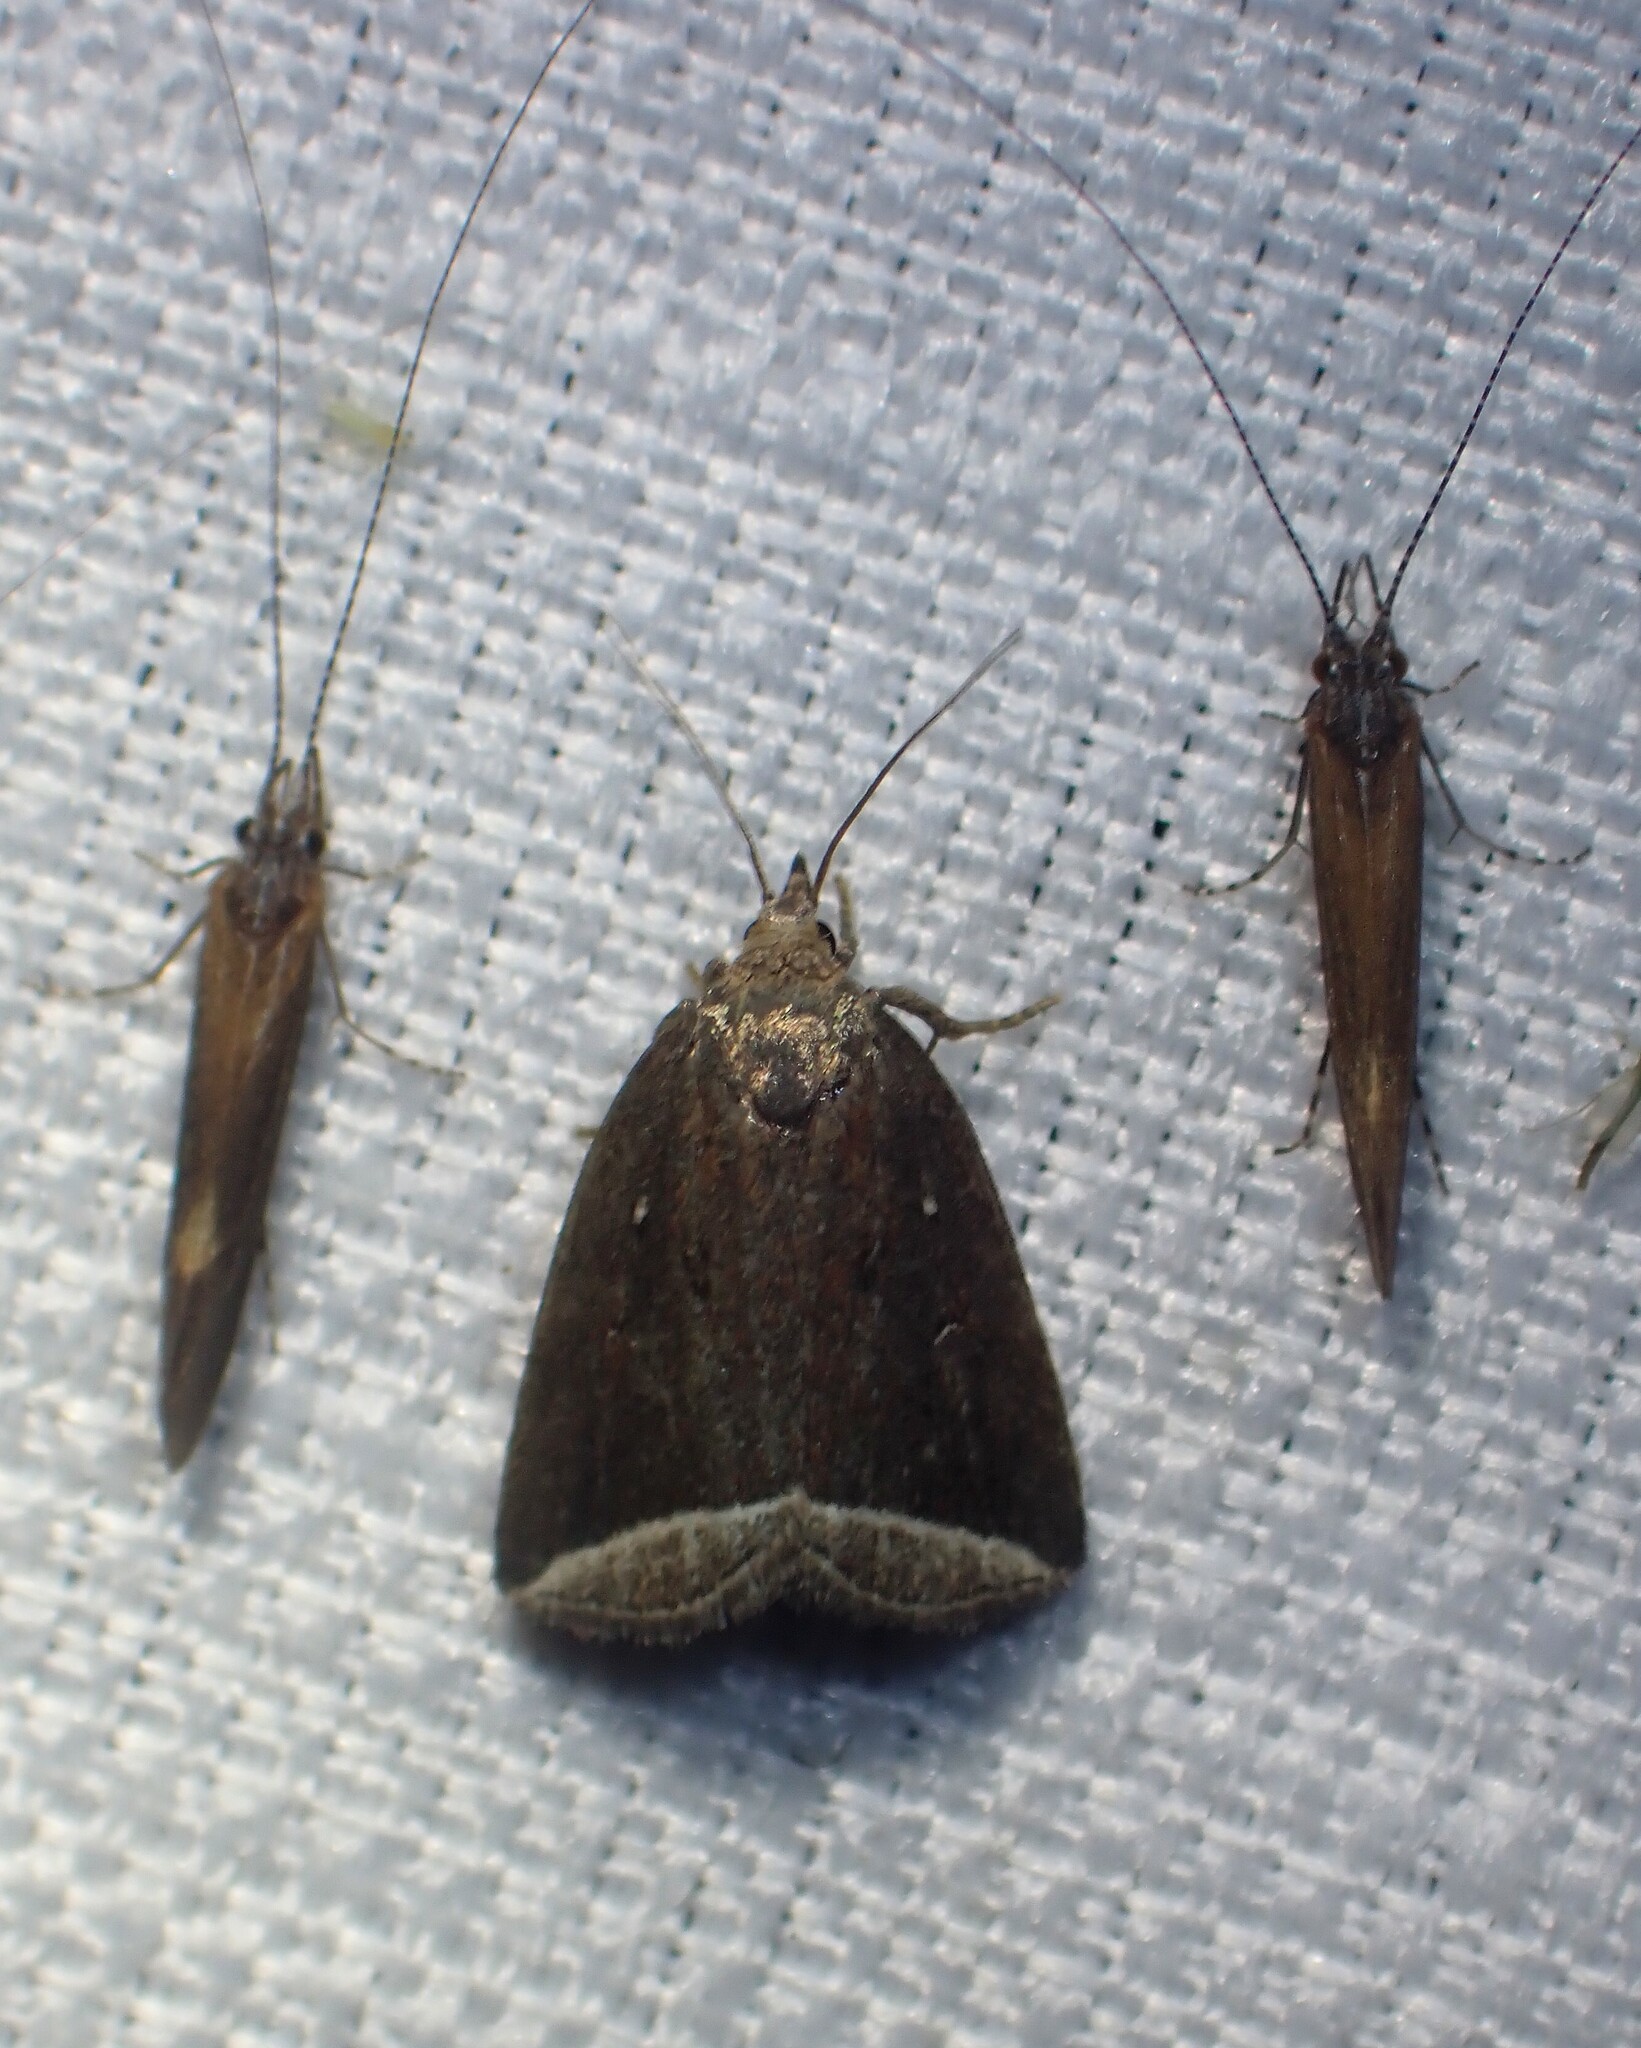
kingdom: Animalia
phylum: Arthropoda
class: Insecta
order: Lepidoptera
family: Erebidae
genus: Capis
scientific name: Capis curvata
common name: Curved halter moth
